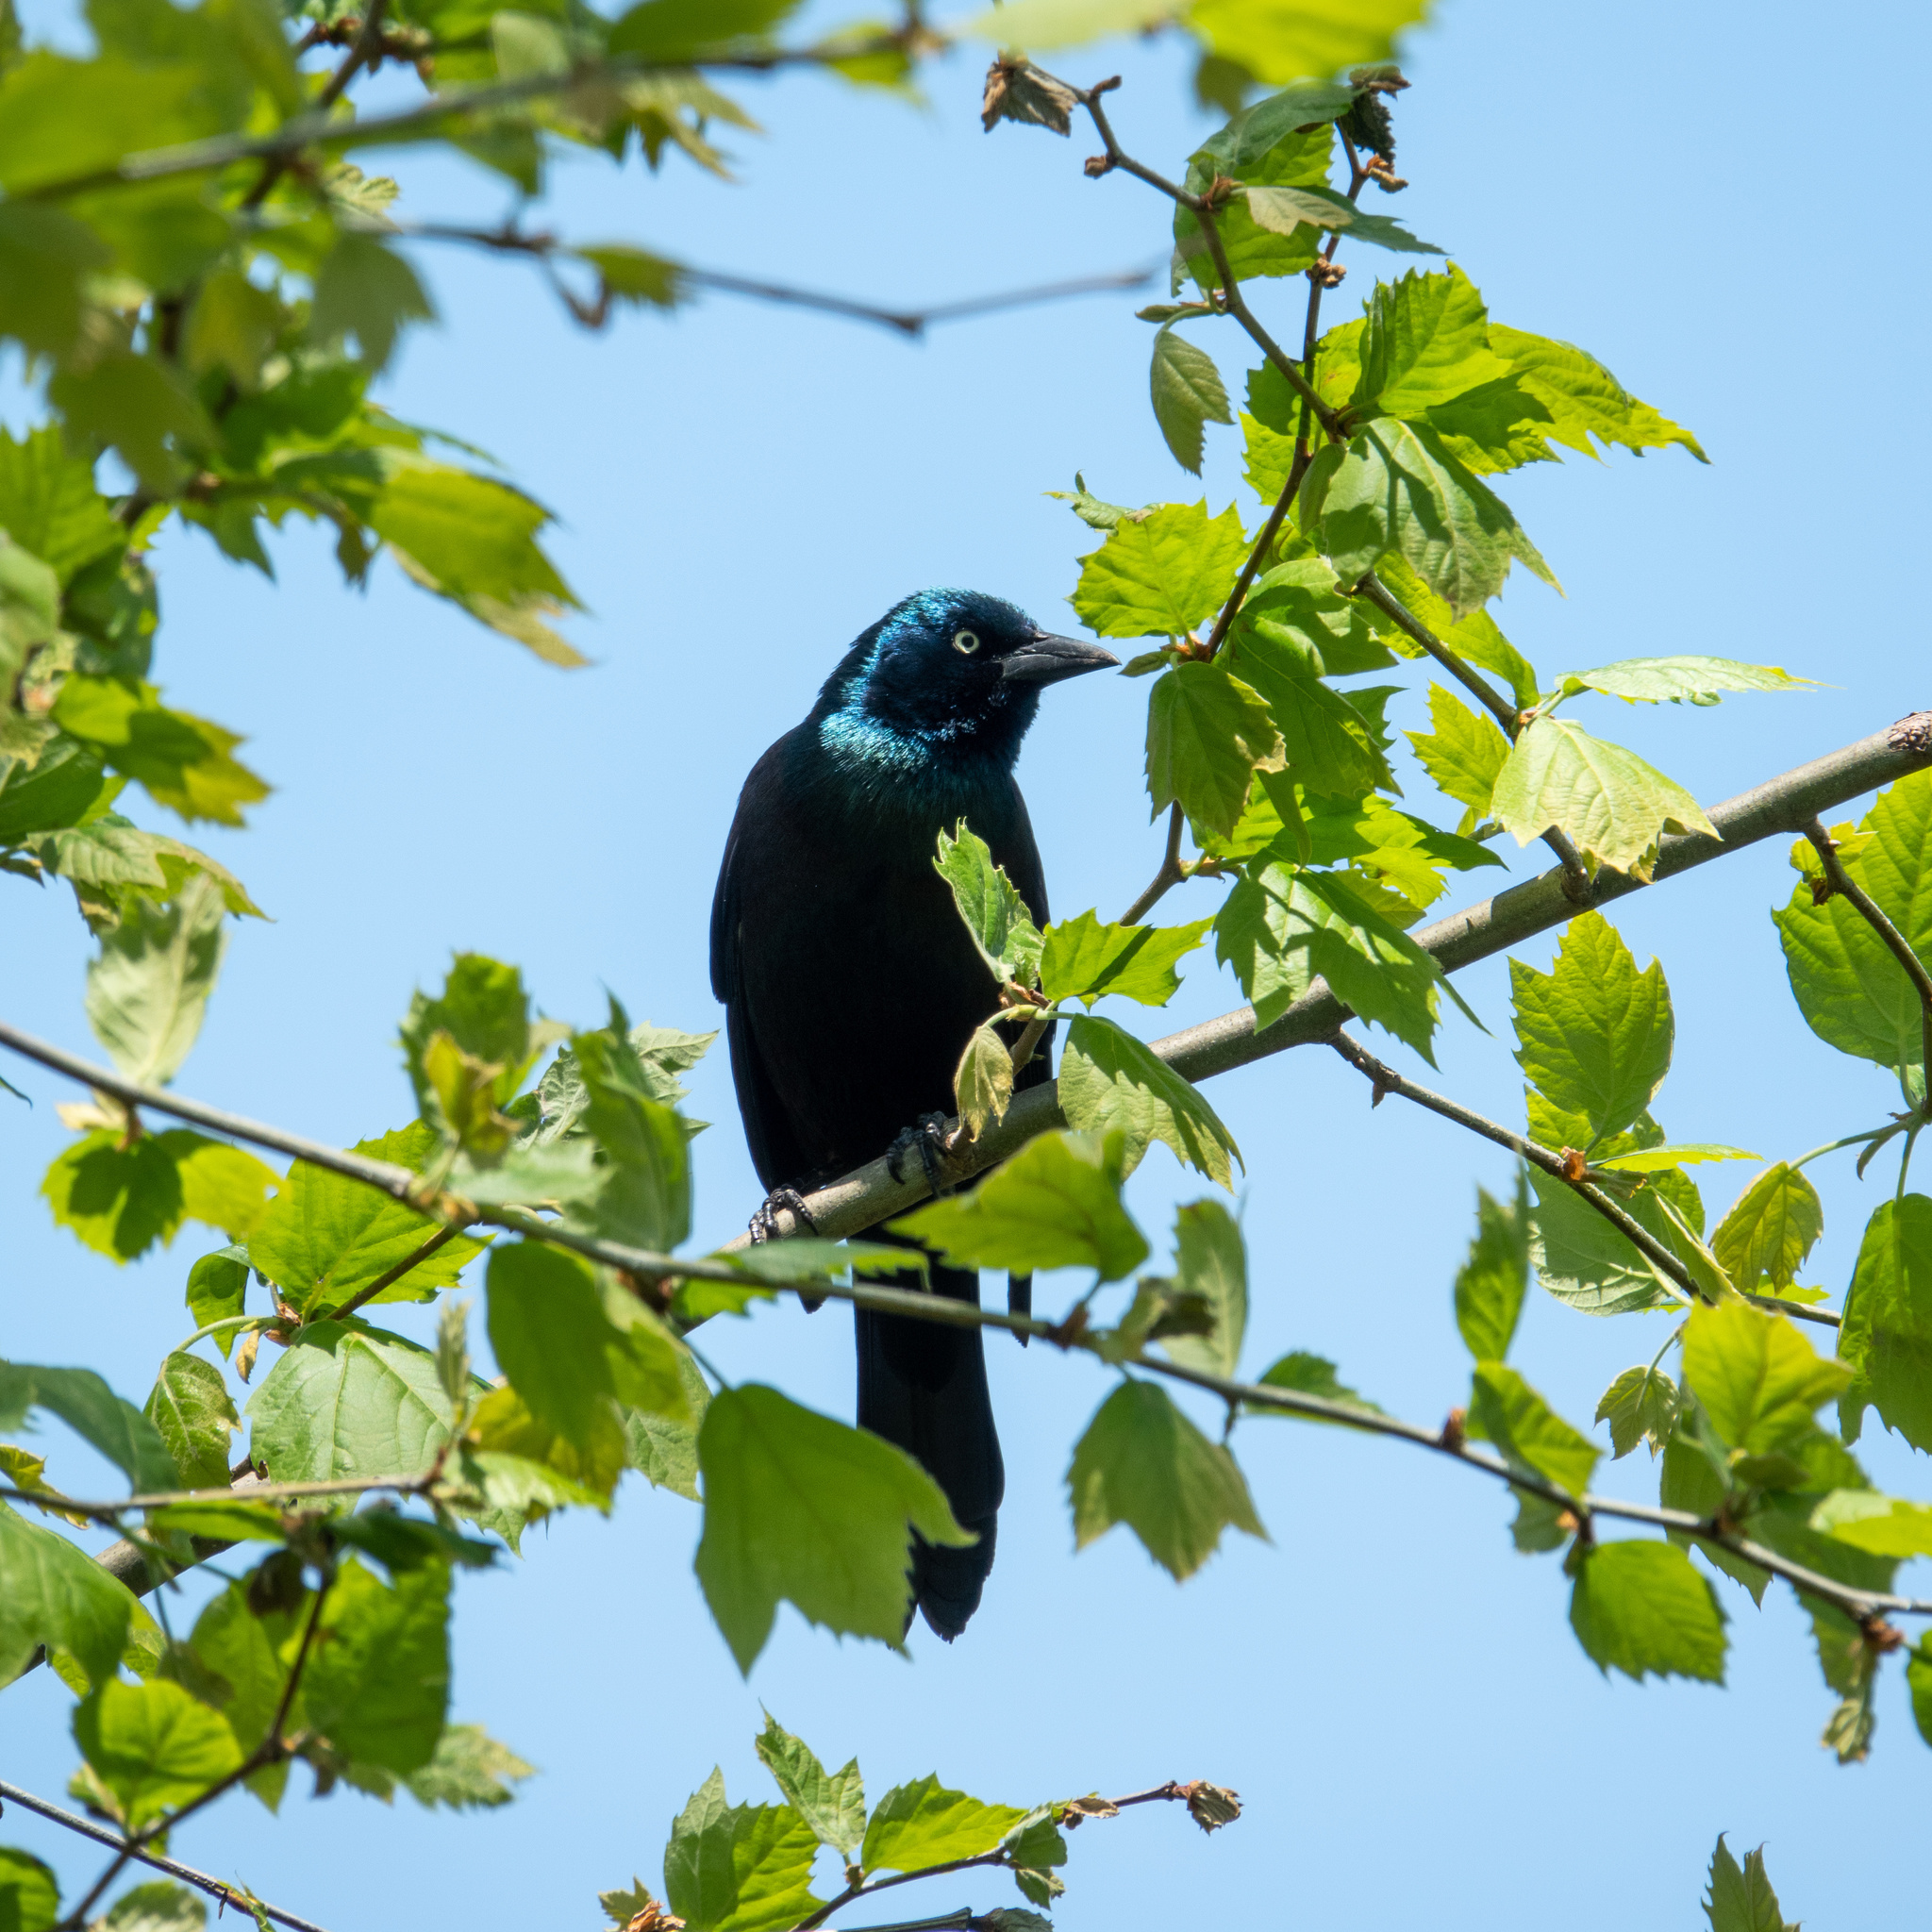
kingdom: Animalia
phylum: Chordata
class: Aves
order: Passeriformes
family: Icteridae
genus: Quiscalus
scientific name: Quiscalus quiscula
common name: Common grackle
